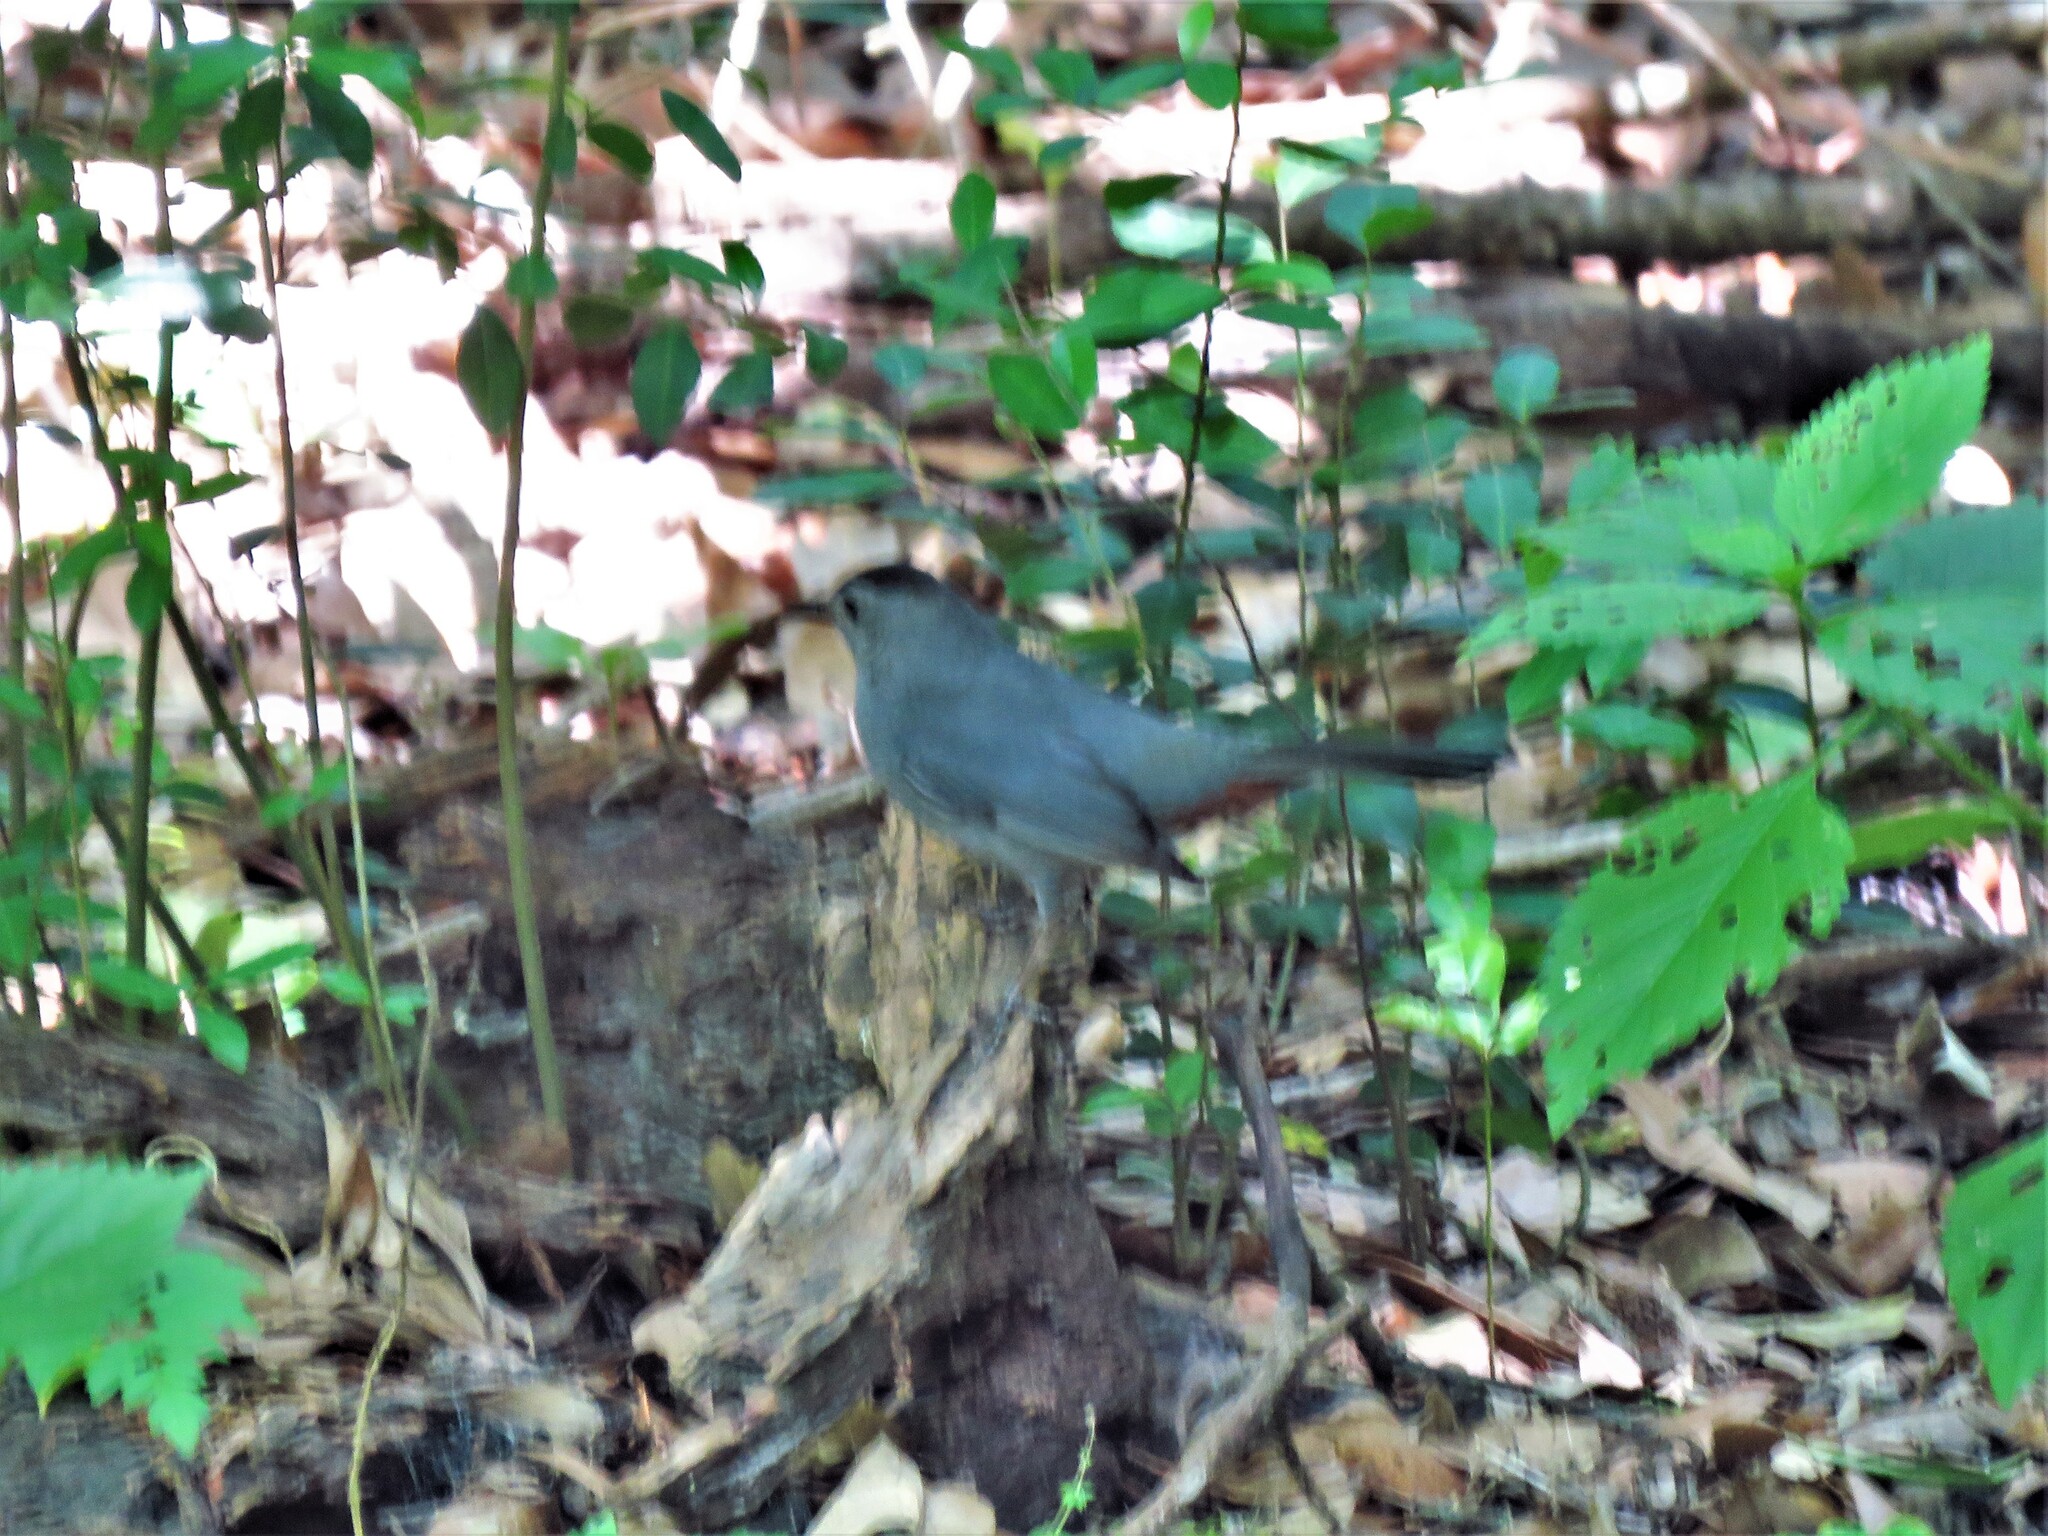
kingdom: Animalia
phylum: Chordata
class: Aves
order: Passeriformes
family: Mimidae
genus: Dumetella
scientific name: Dumetella carolinensis
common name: Gray catbird
